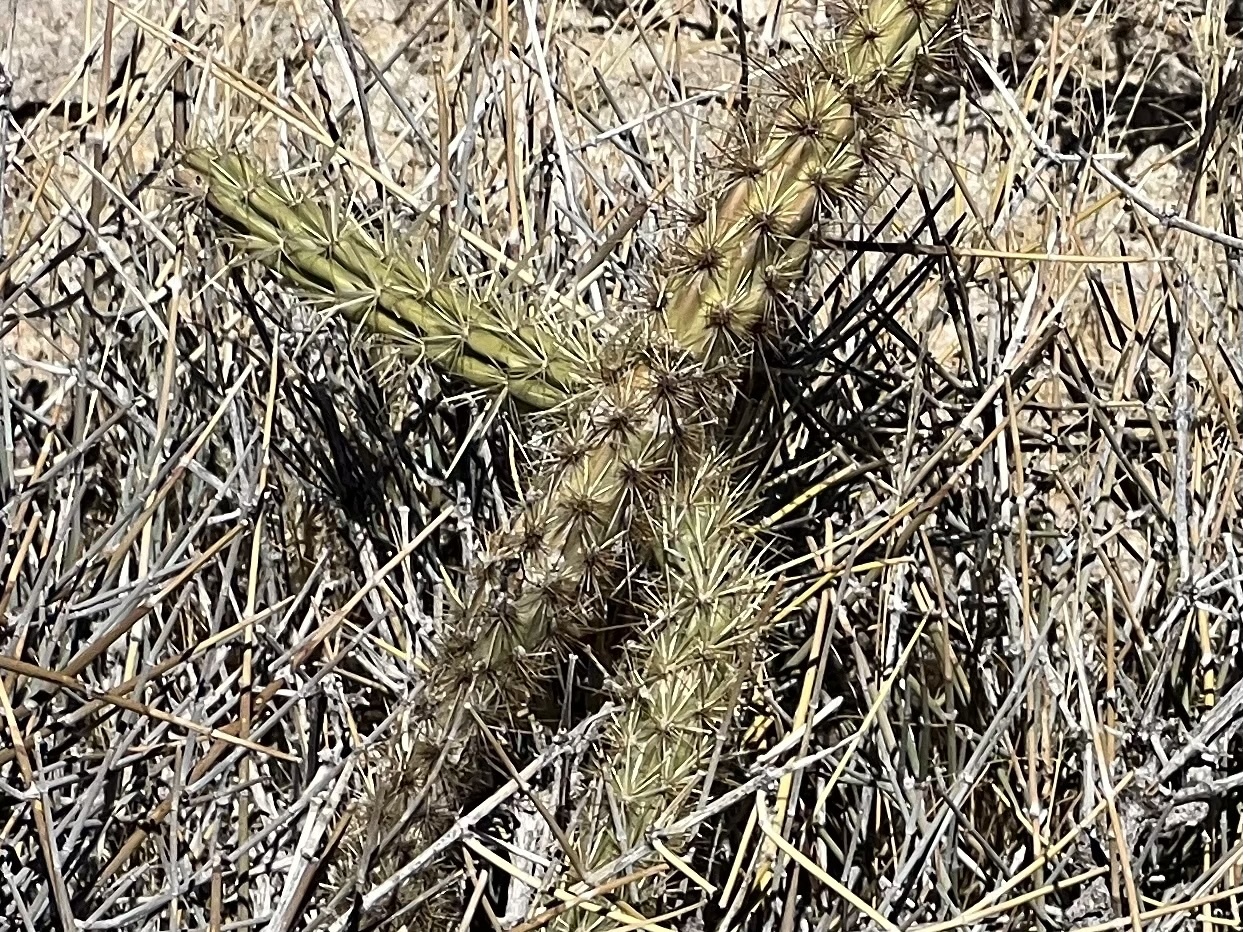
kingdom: Plantae
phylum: Tracheophyta
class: Magnoliopsida
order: Caryophyllales
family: Cactaceae
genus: Cylindropuntia
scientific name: Cylindropuntia acanthocarpa
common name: Buckhorn cholla
